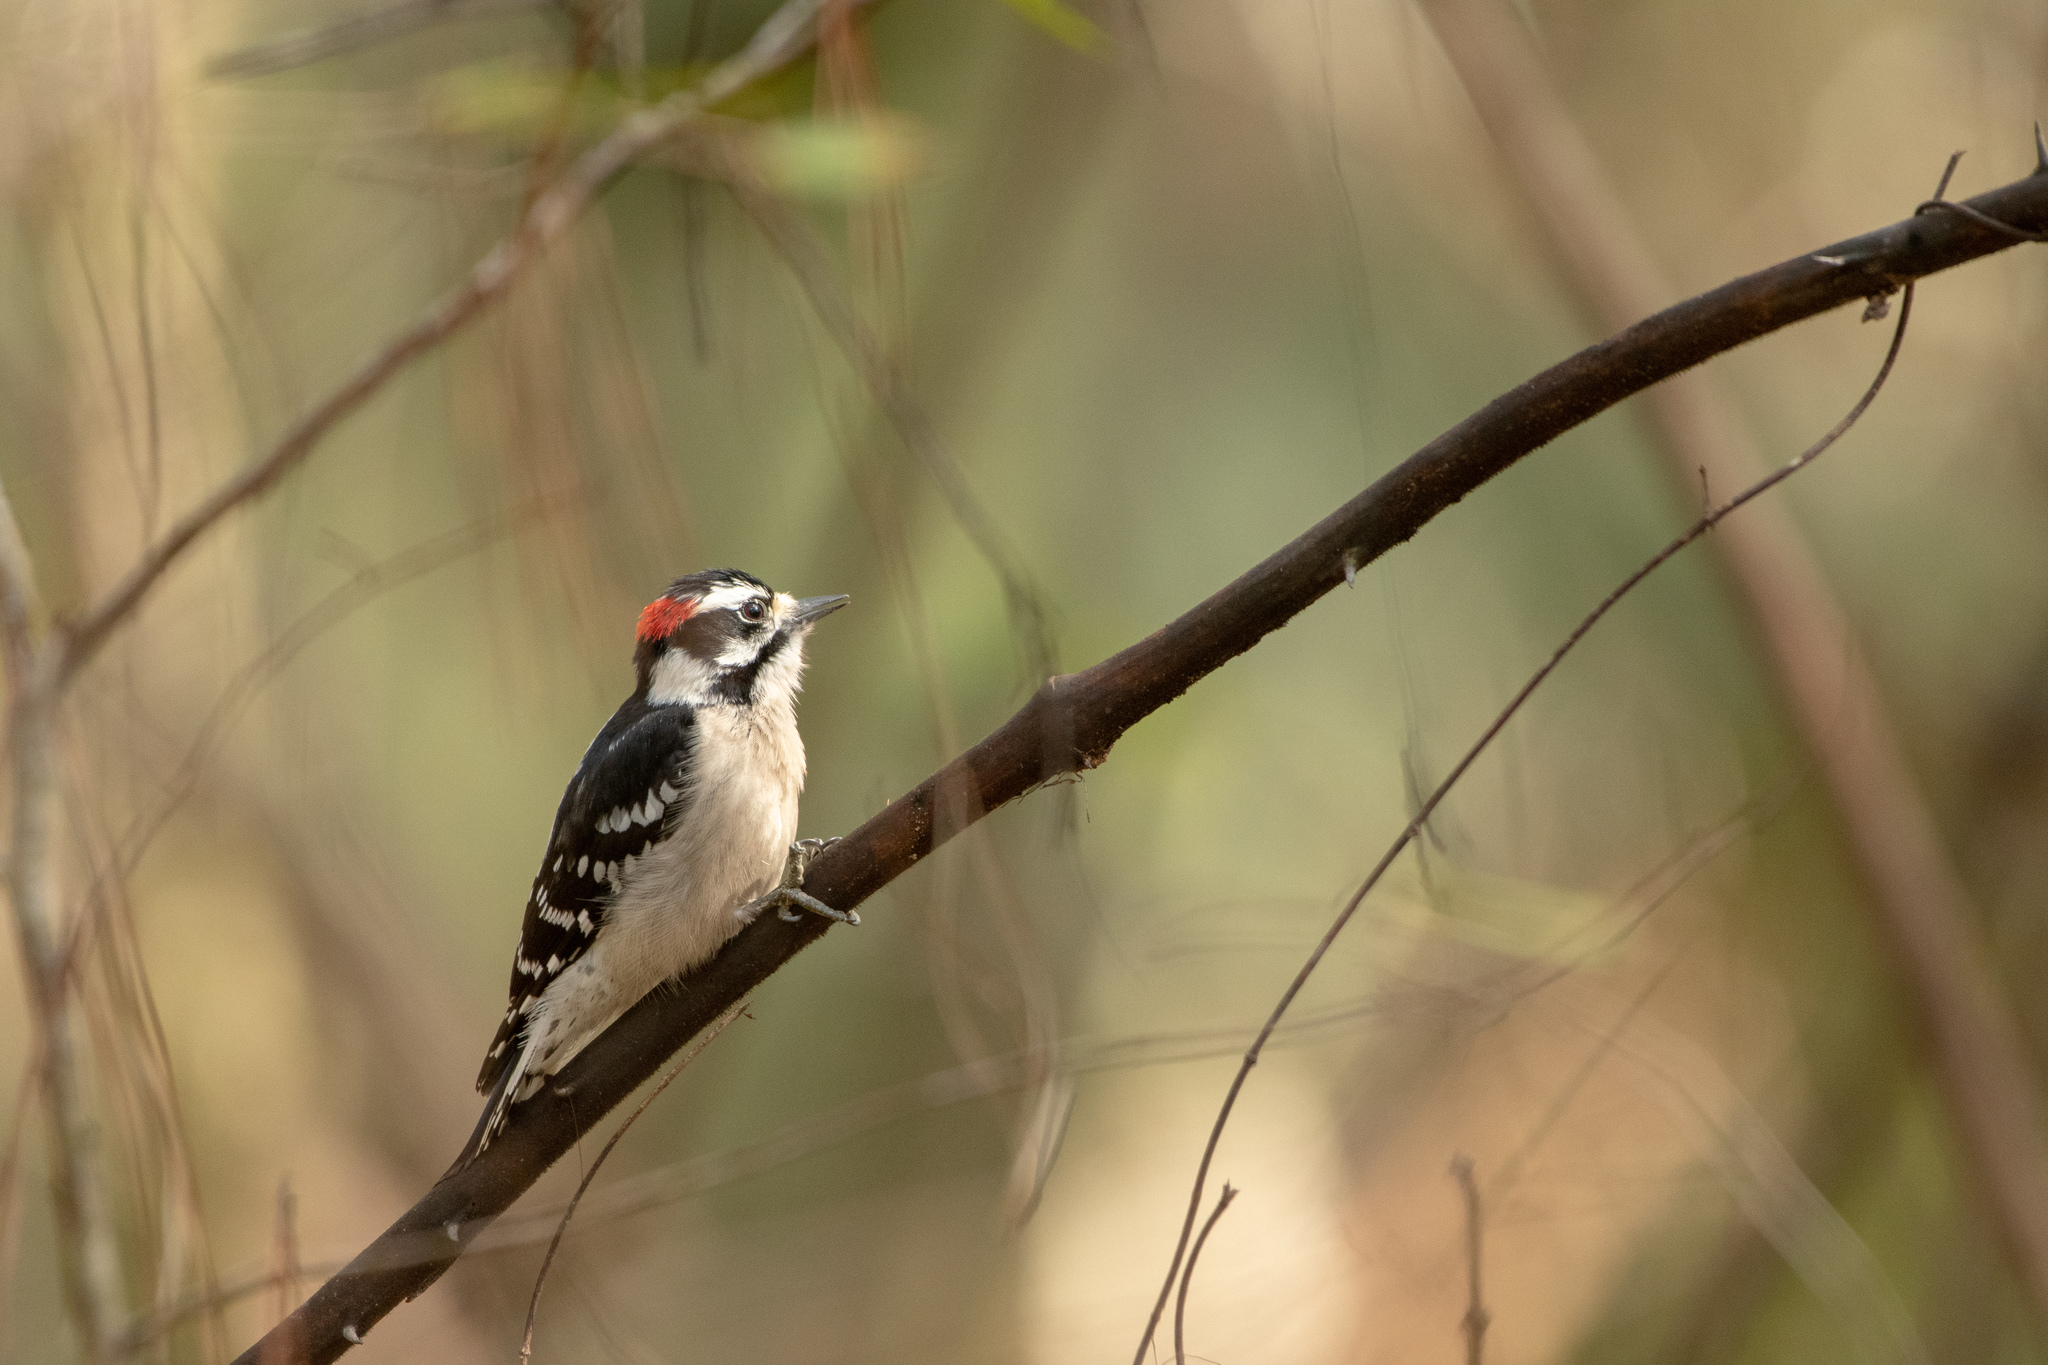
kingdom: Animalia
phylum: Chordata
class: Aves
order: Piciformes
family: Picidae
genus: Dryobates
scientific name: Dryobates pubescens
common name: Downy woodpecker
